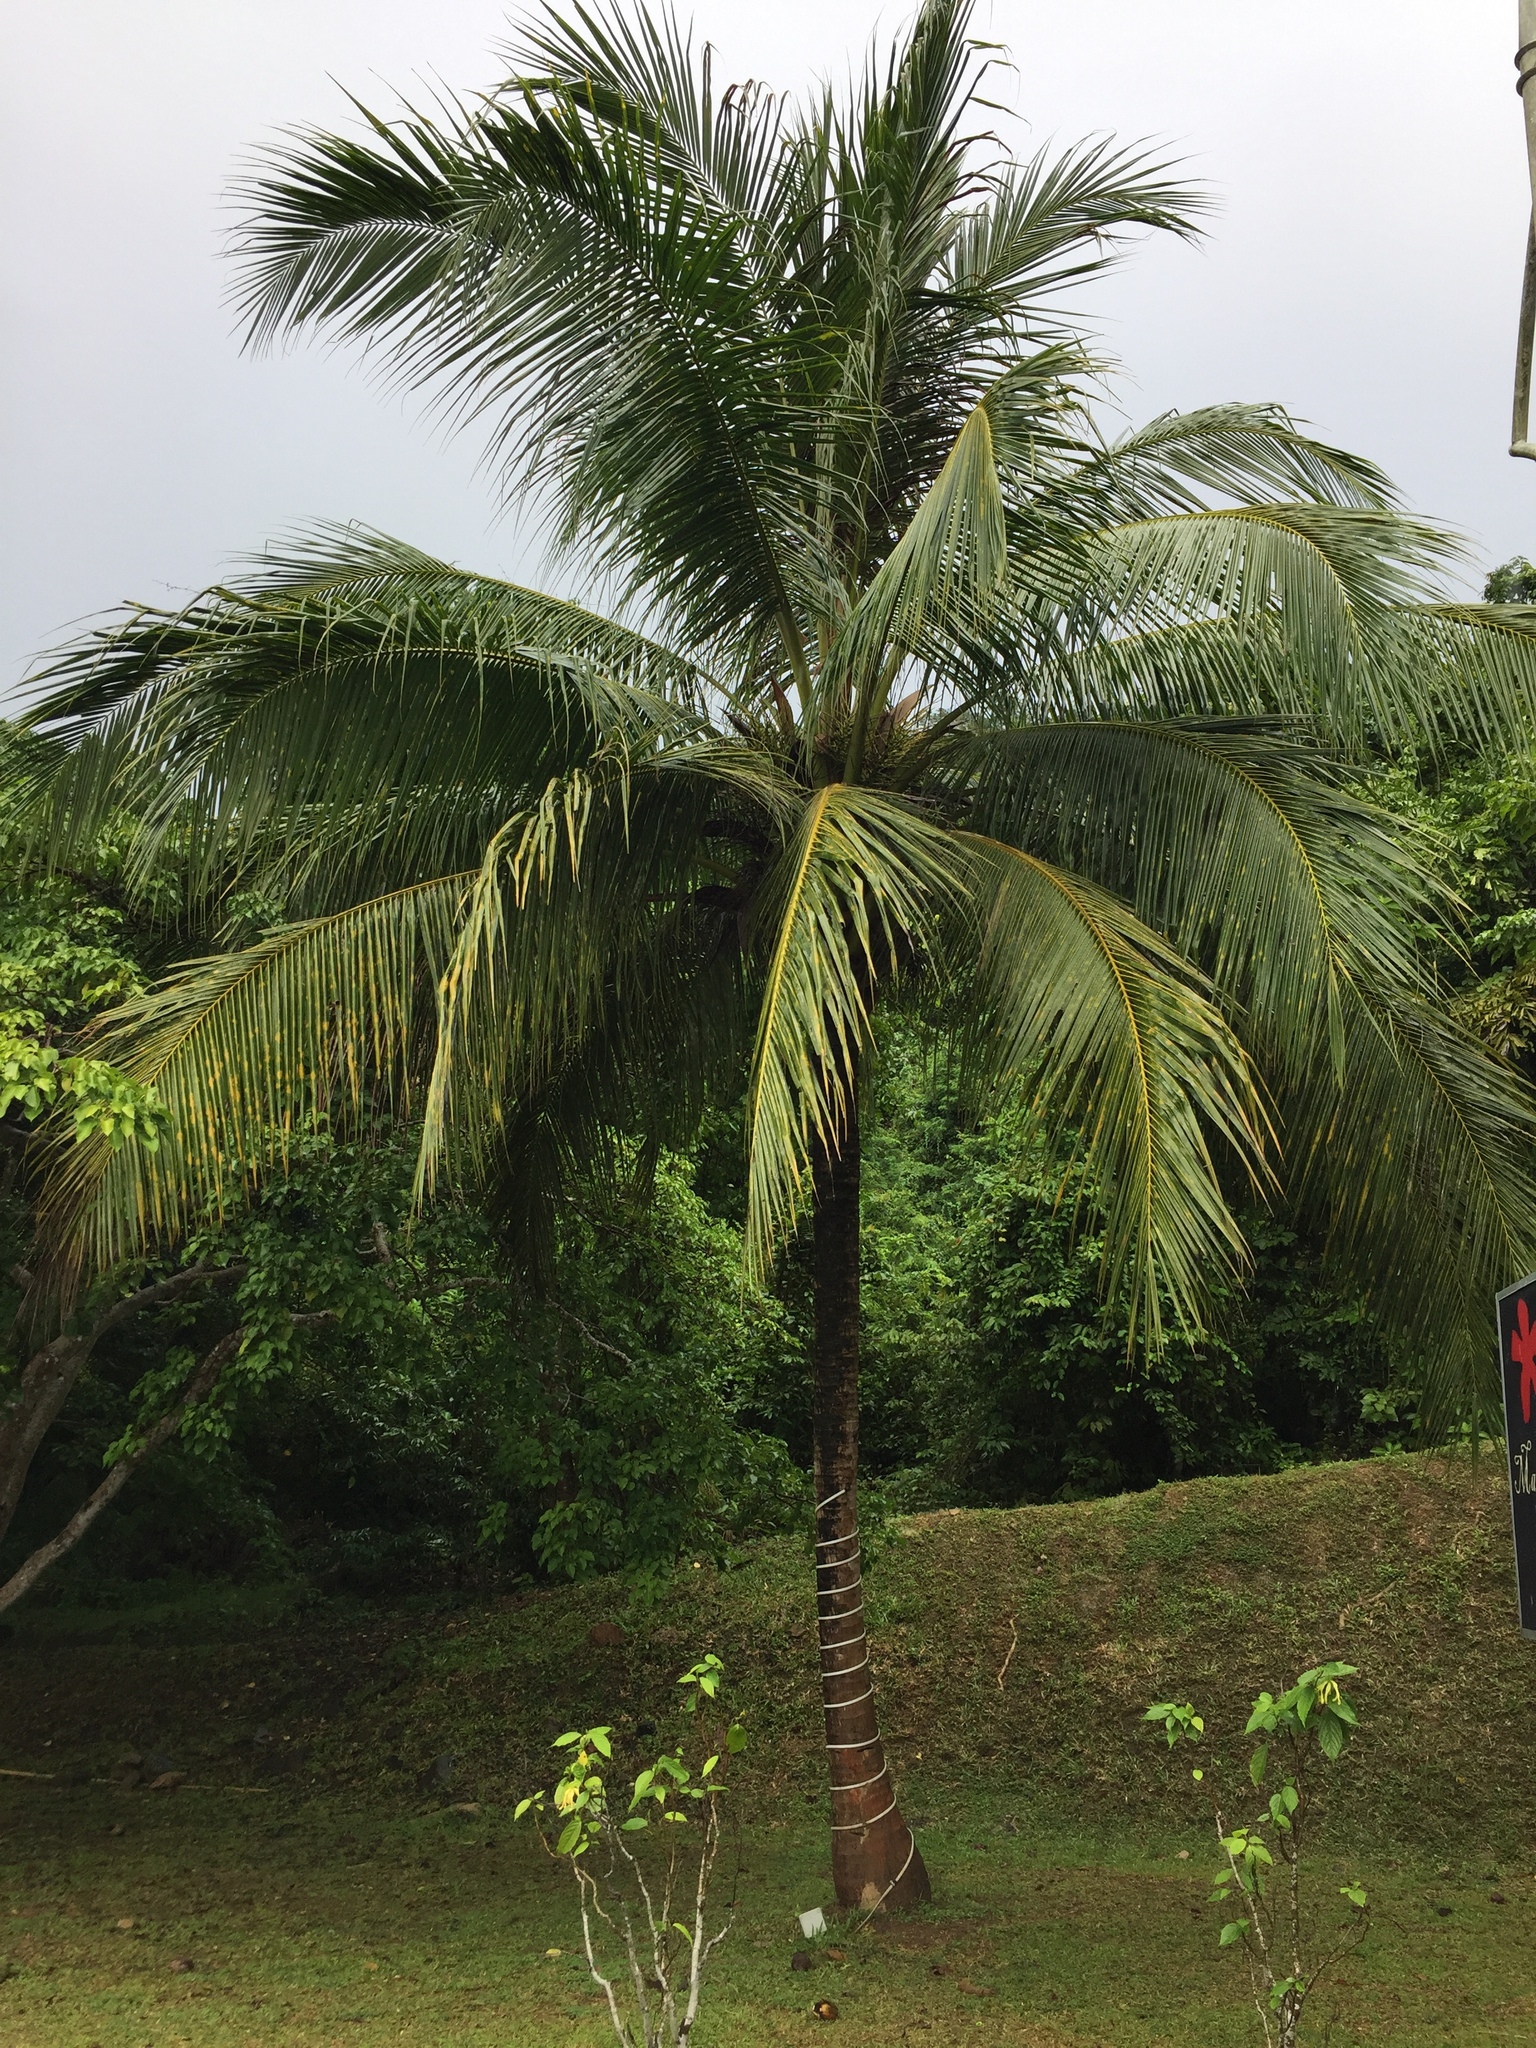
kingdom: Plantae
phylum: Tracheophyta
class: Liliopsida
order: Arecales
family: Arecaceae
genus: Cocos
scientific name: Cocos nucifera
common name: Coconut palm
